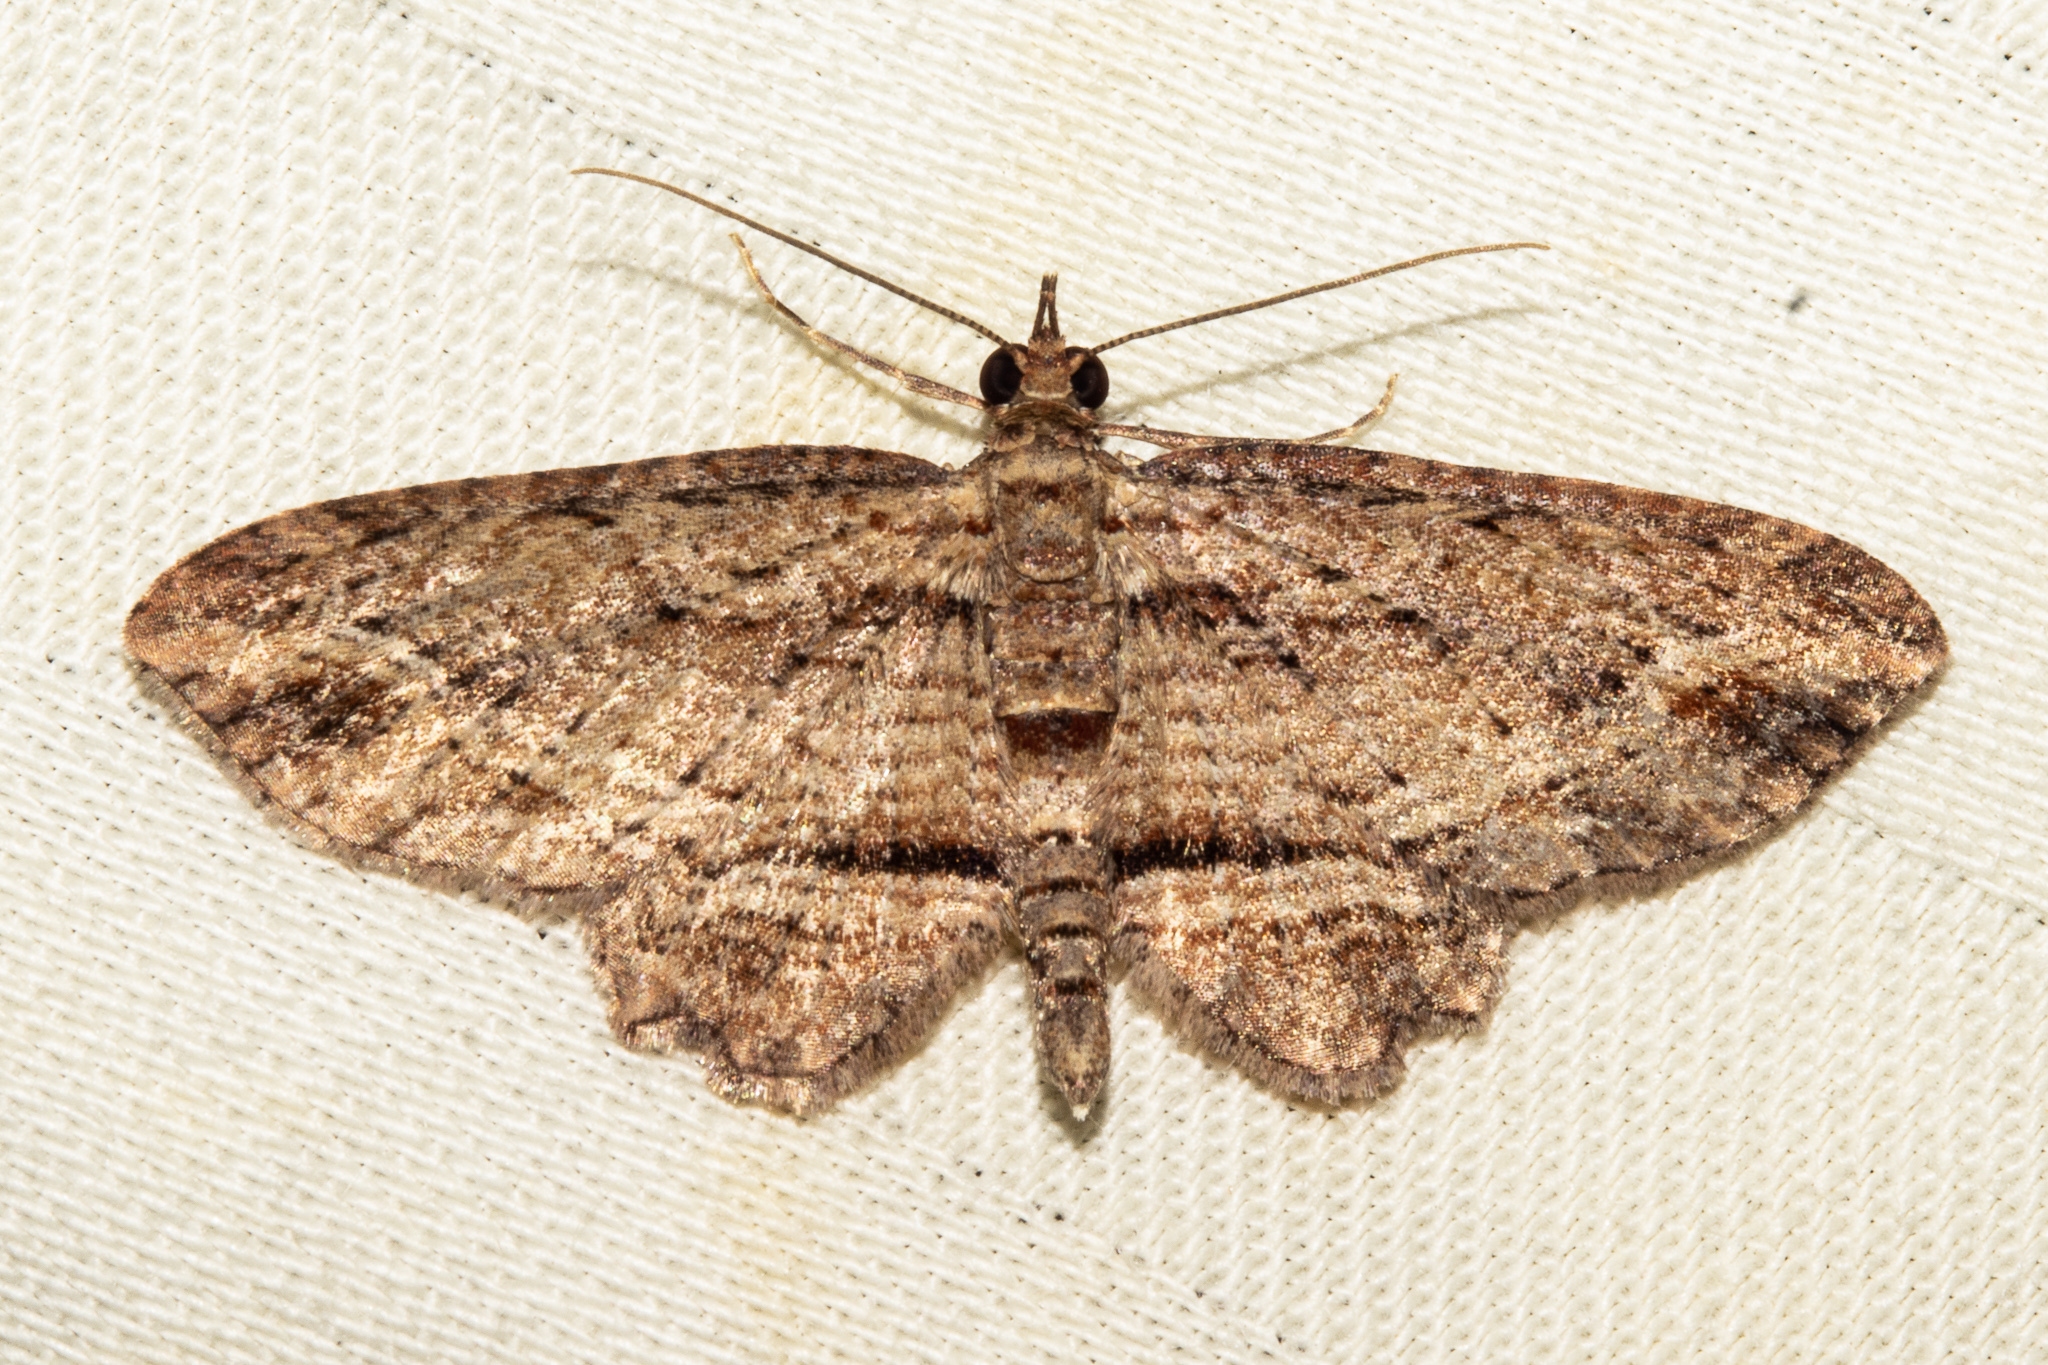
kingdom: Animalia
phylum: Arthropoda
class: Insecta
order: Lepidoptera
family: Geometridae
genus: Chloroclystis
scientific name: Chloroclystis filata
